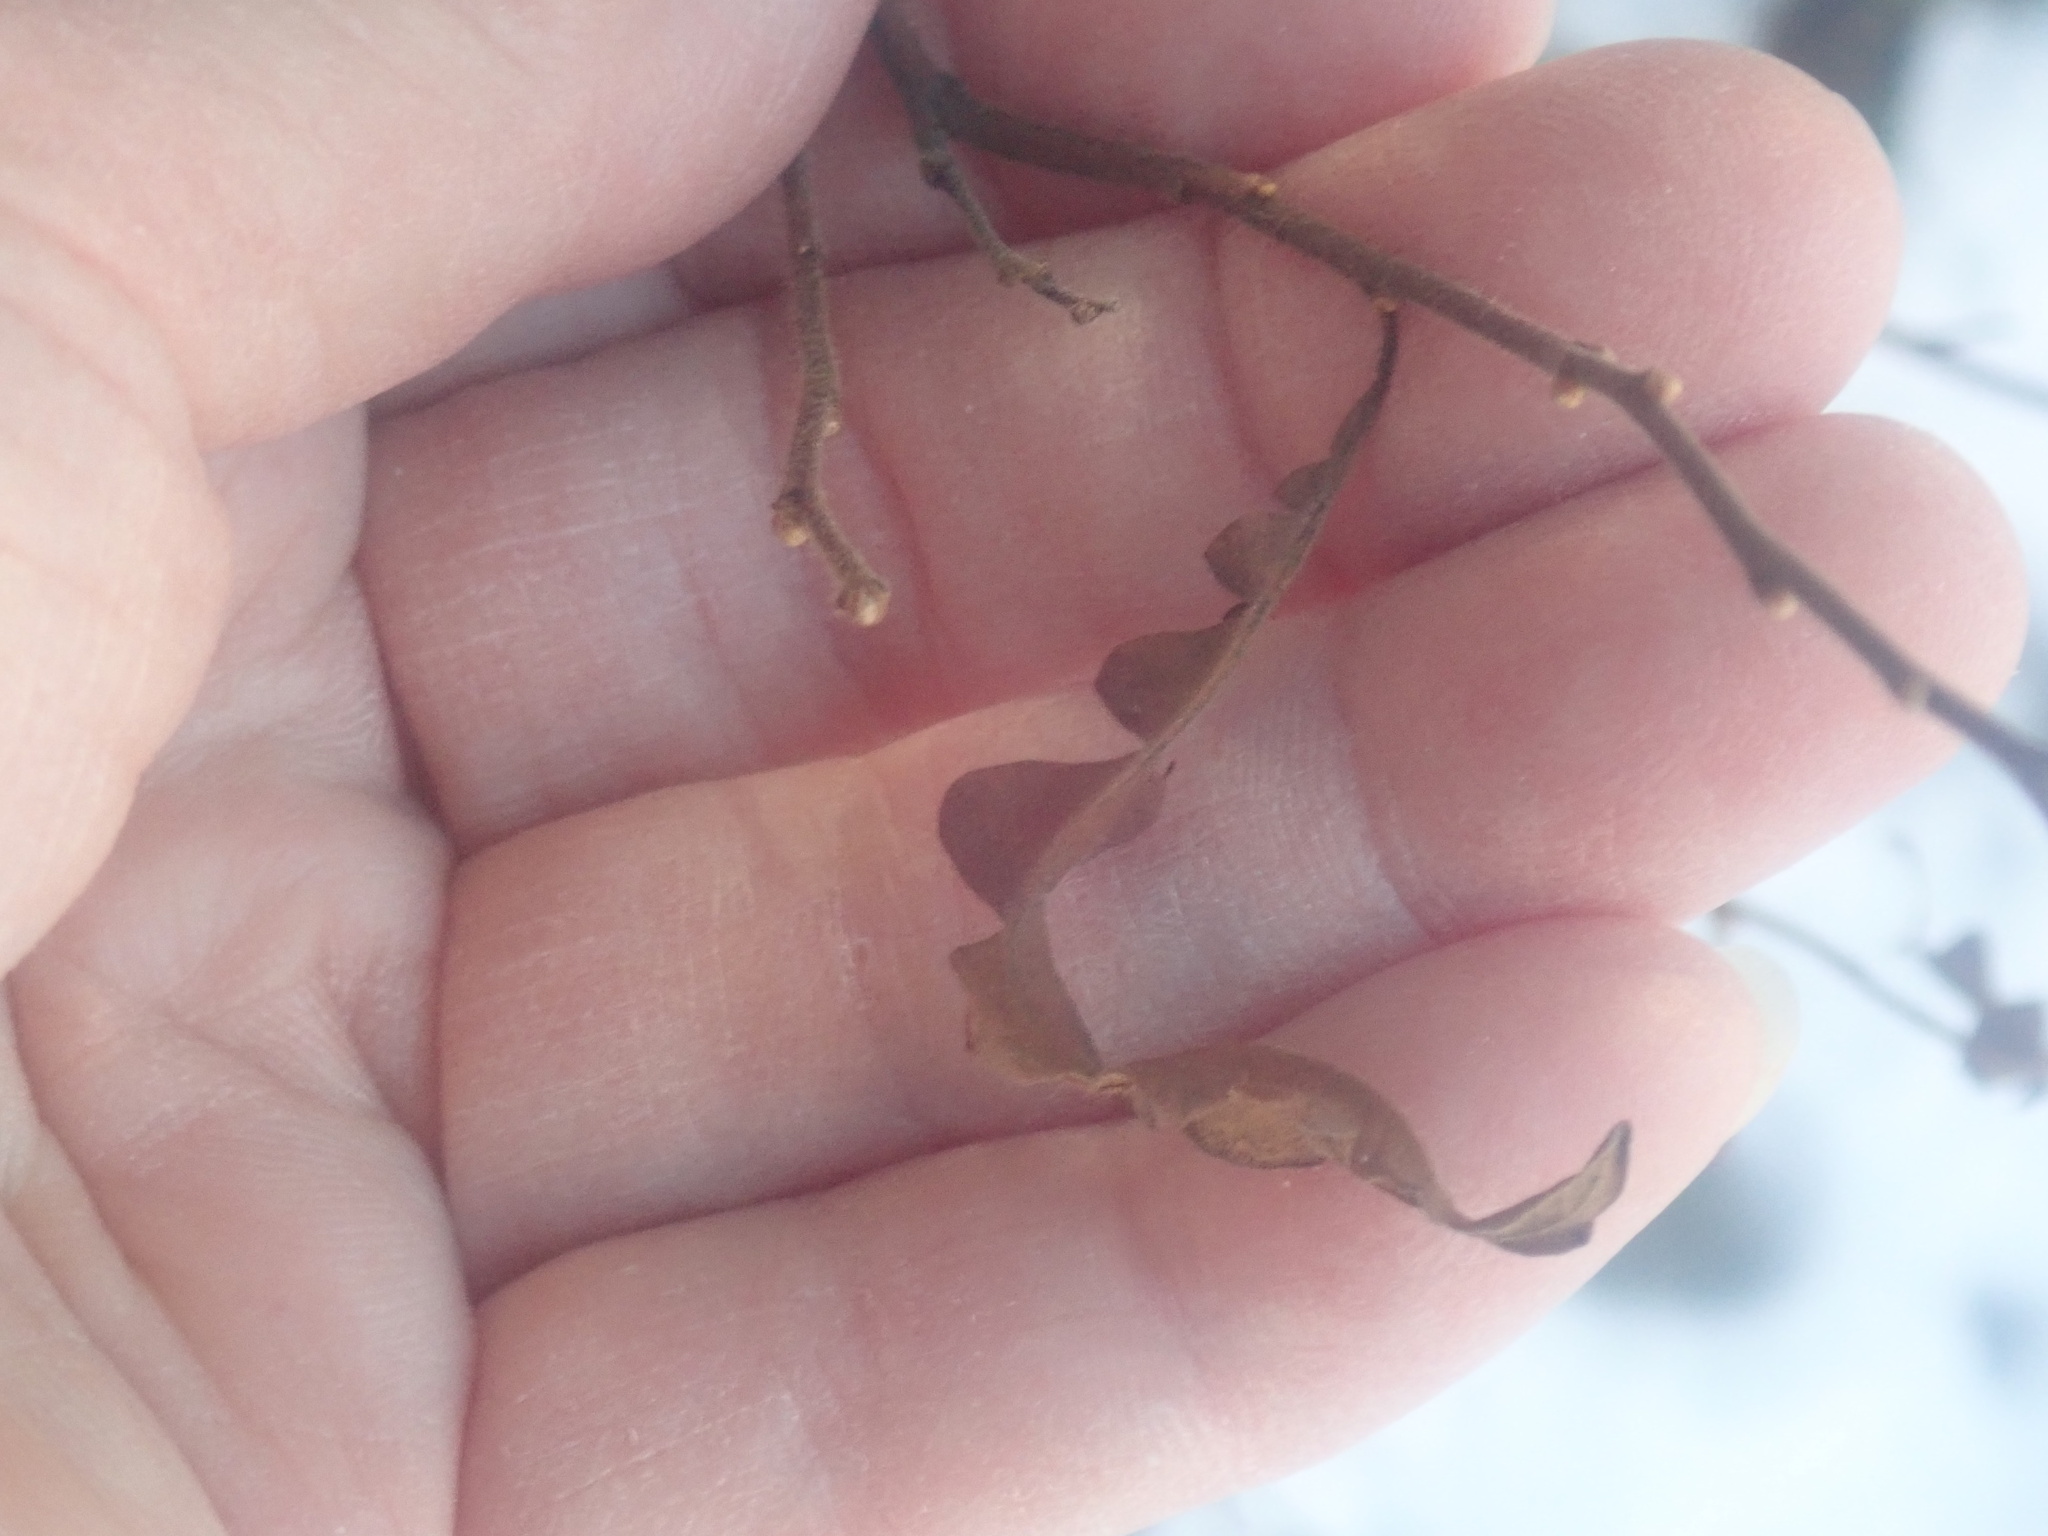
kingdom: Plantae
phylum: Tracheophyta
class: Magnoliopsida
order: Fagales
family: Myricaceae
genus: Comptonia
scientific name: Comptonia peregrina
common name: Sweet-fern
